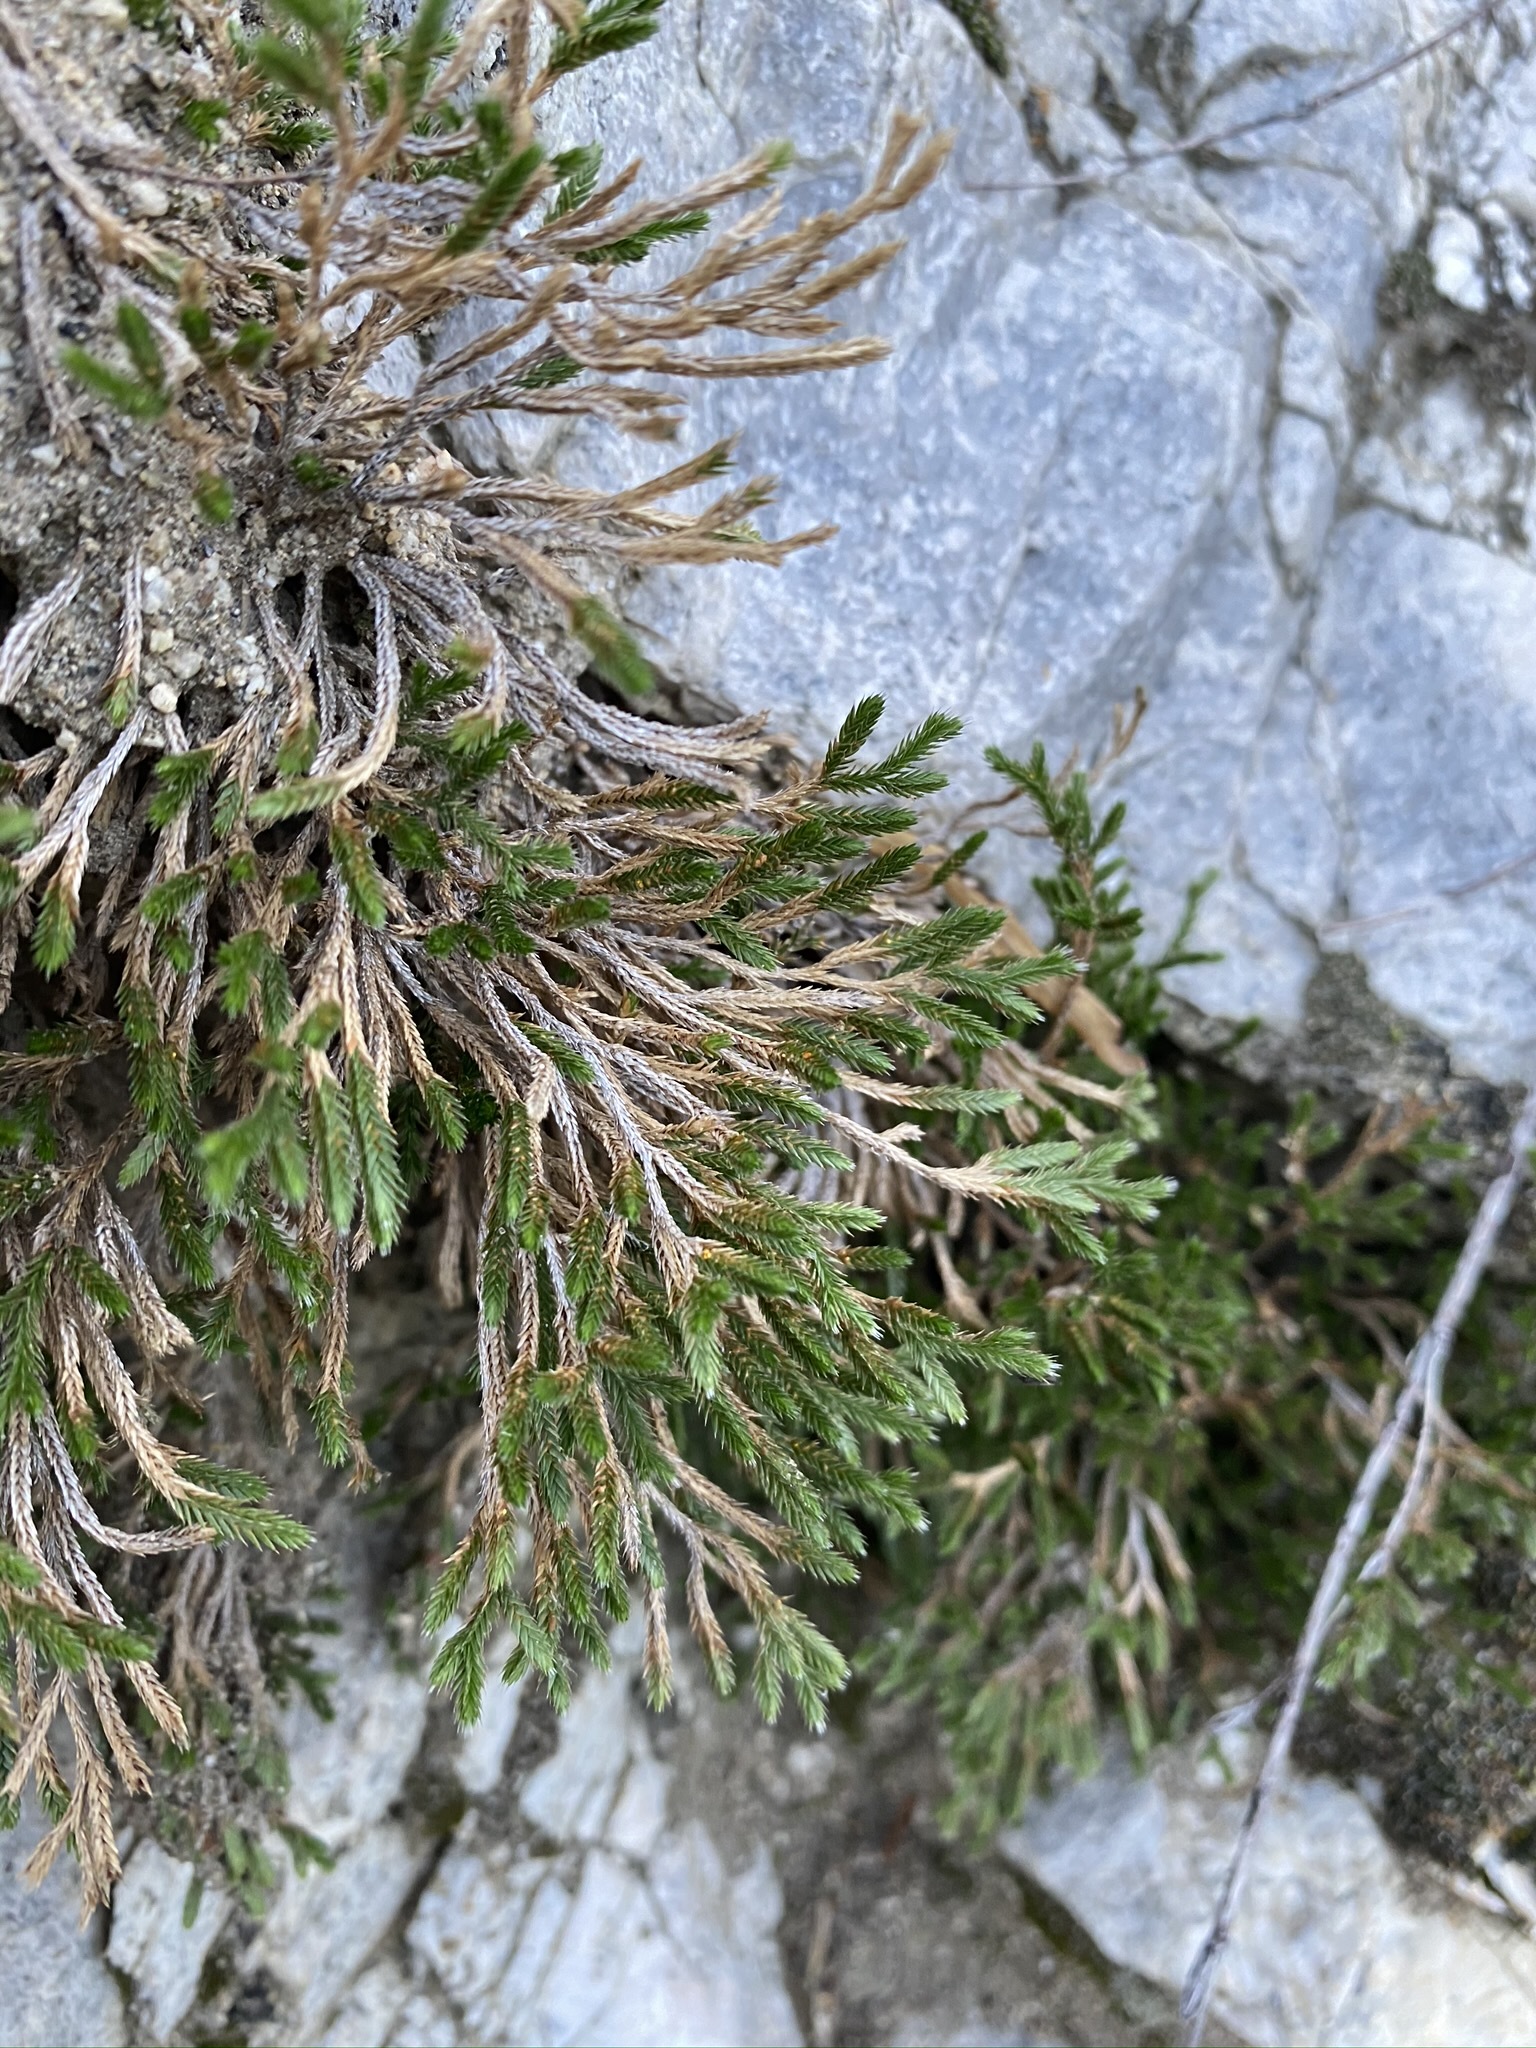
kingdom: Plantae
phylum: Tracheophyta
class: Lycopodiopsida
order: Selaginellales
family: Selaginellaceae
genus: Selaginella
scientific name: Selaginella bigelovii
